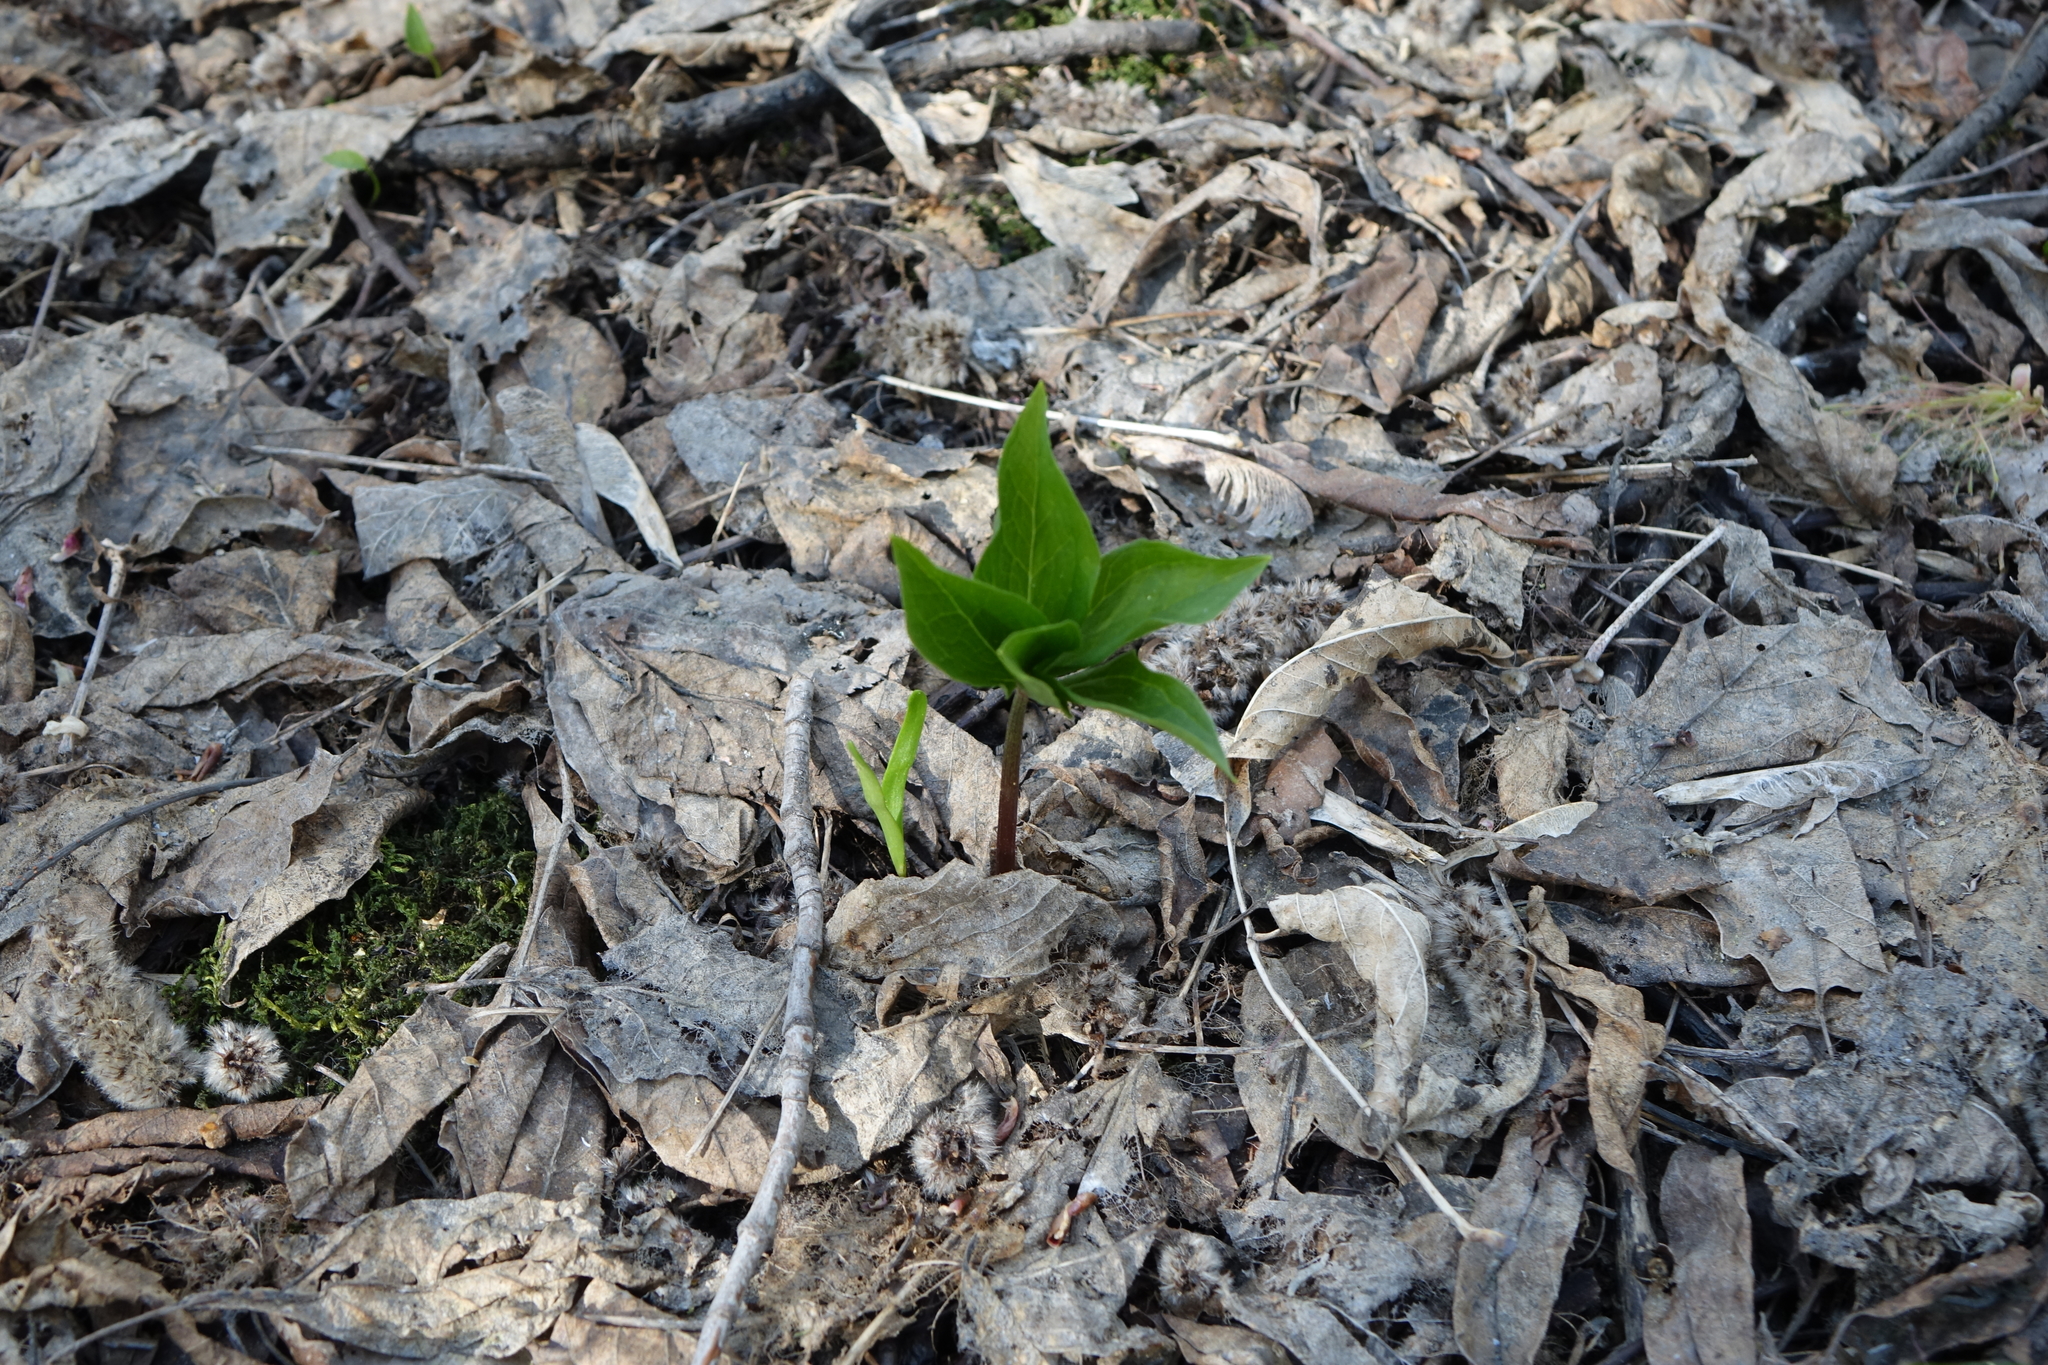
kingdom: Plantae
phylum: Tracheophyta
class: Liliopsida
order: Liliales
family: Melanthiaceae
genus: Paris
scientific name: Paris quadrifolia
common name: Herb-paris
